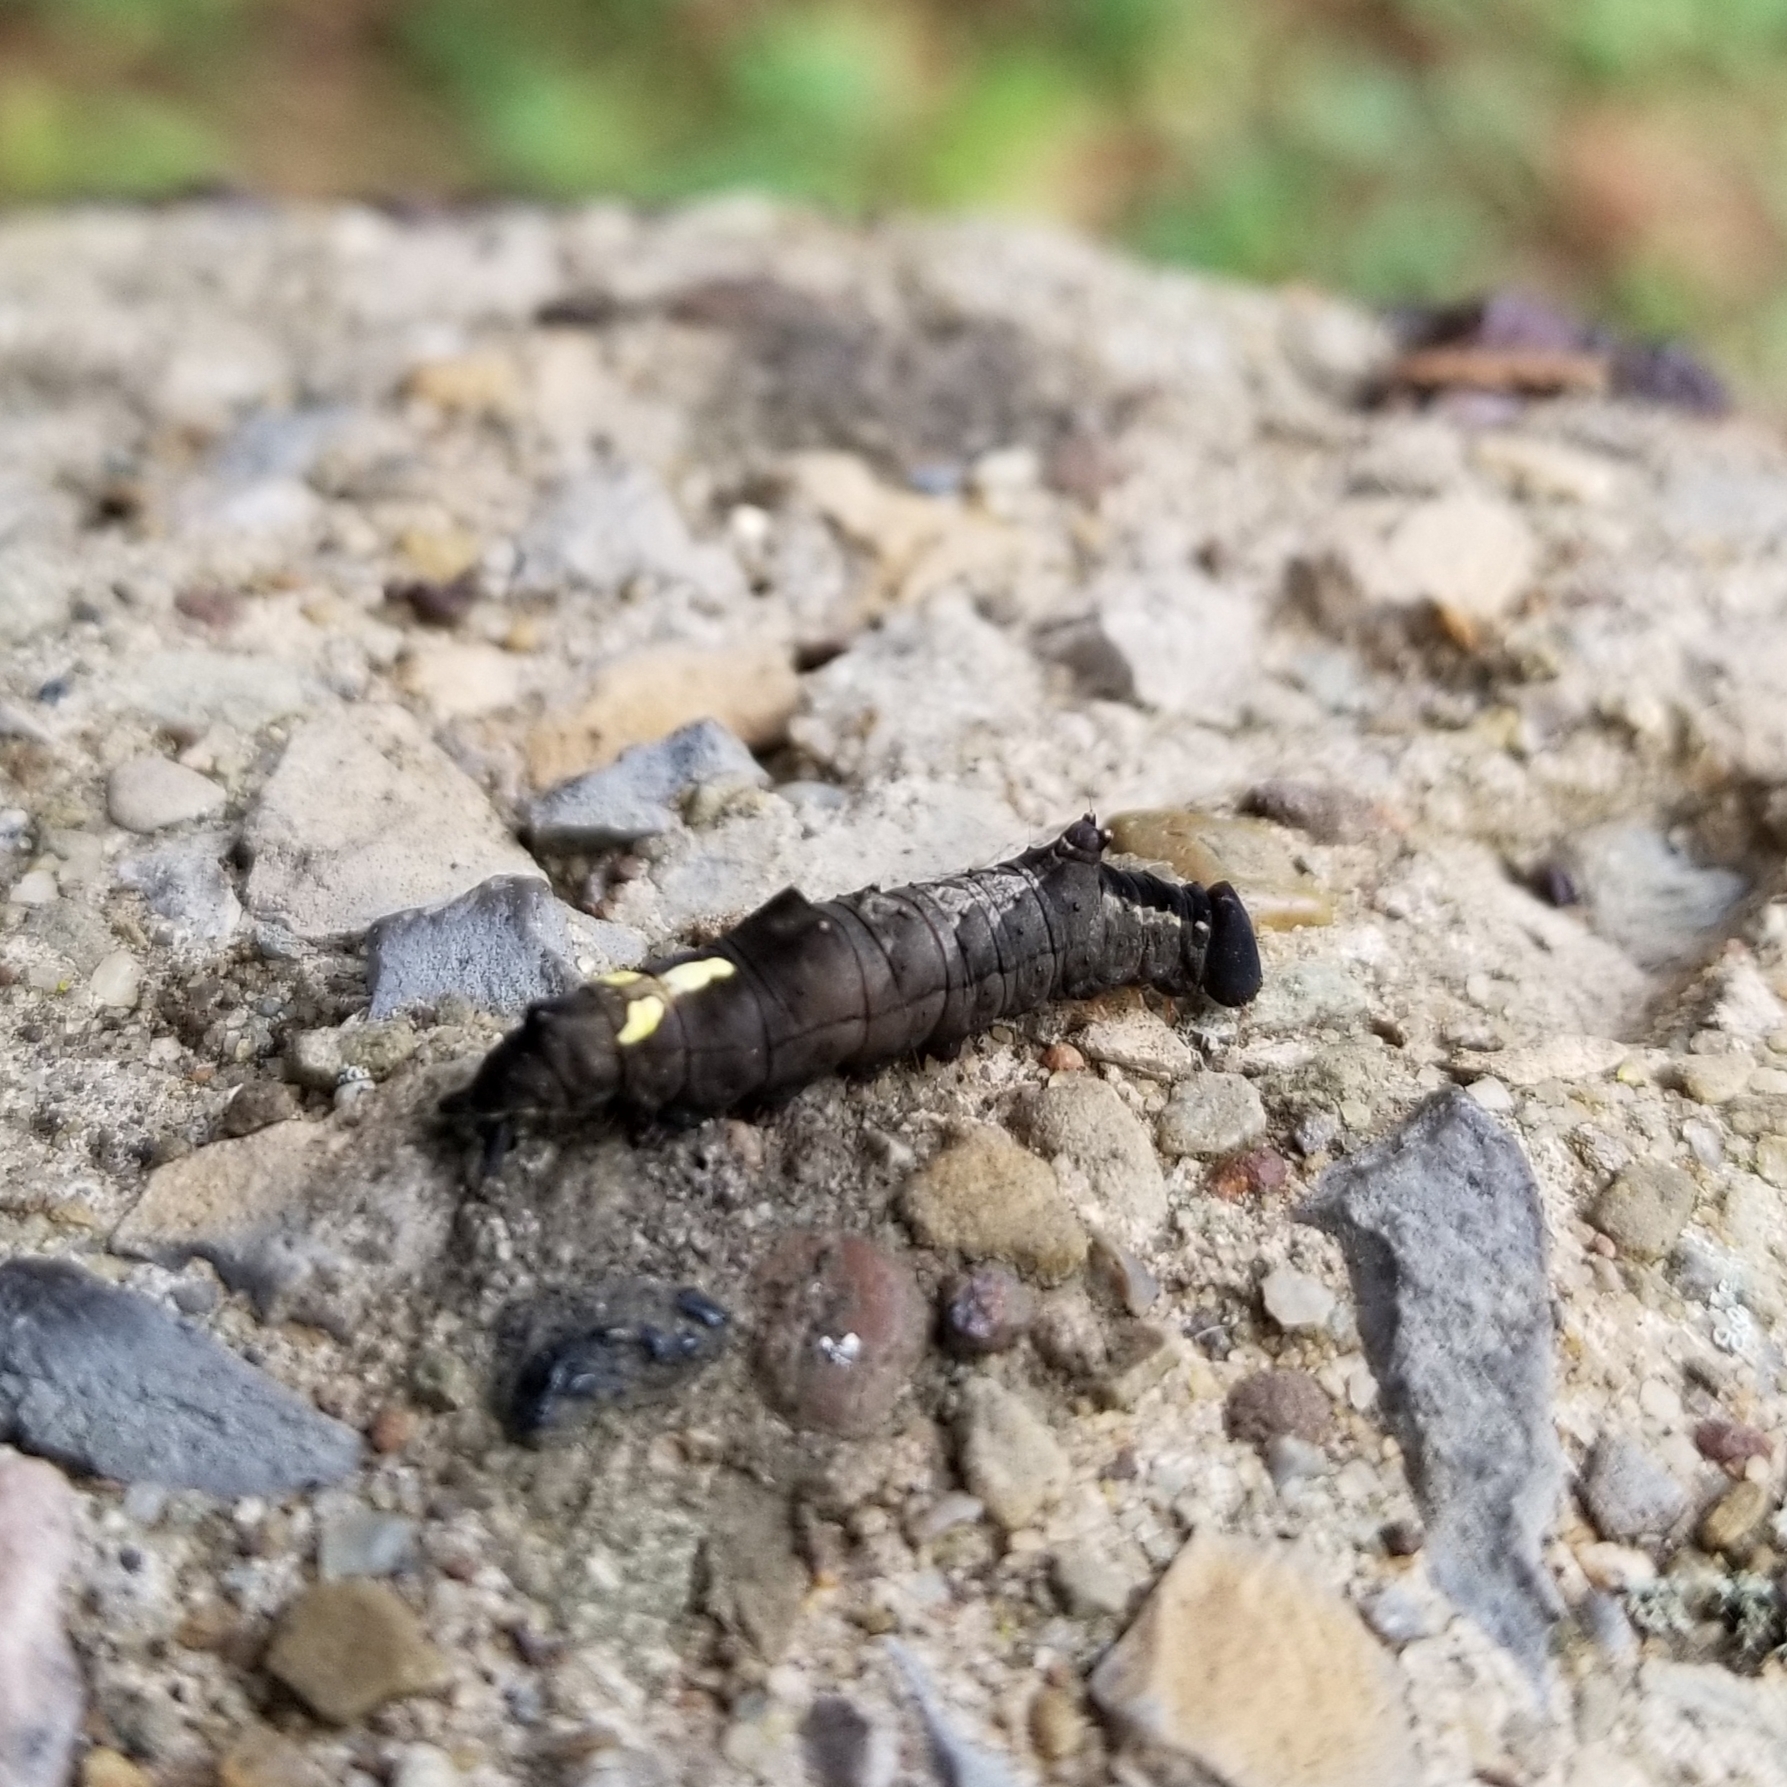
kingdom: Animalia
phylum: Arthropoda
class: Insecta
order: Lepidoptera
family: Notodontidae
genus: Schizura
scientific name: Schizura
